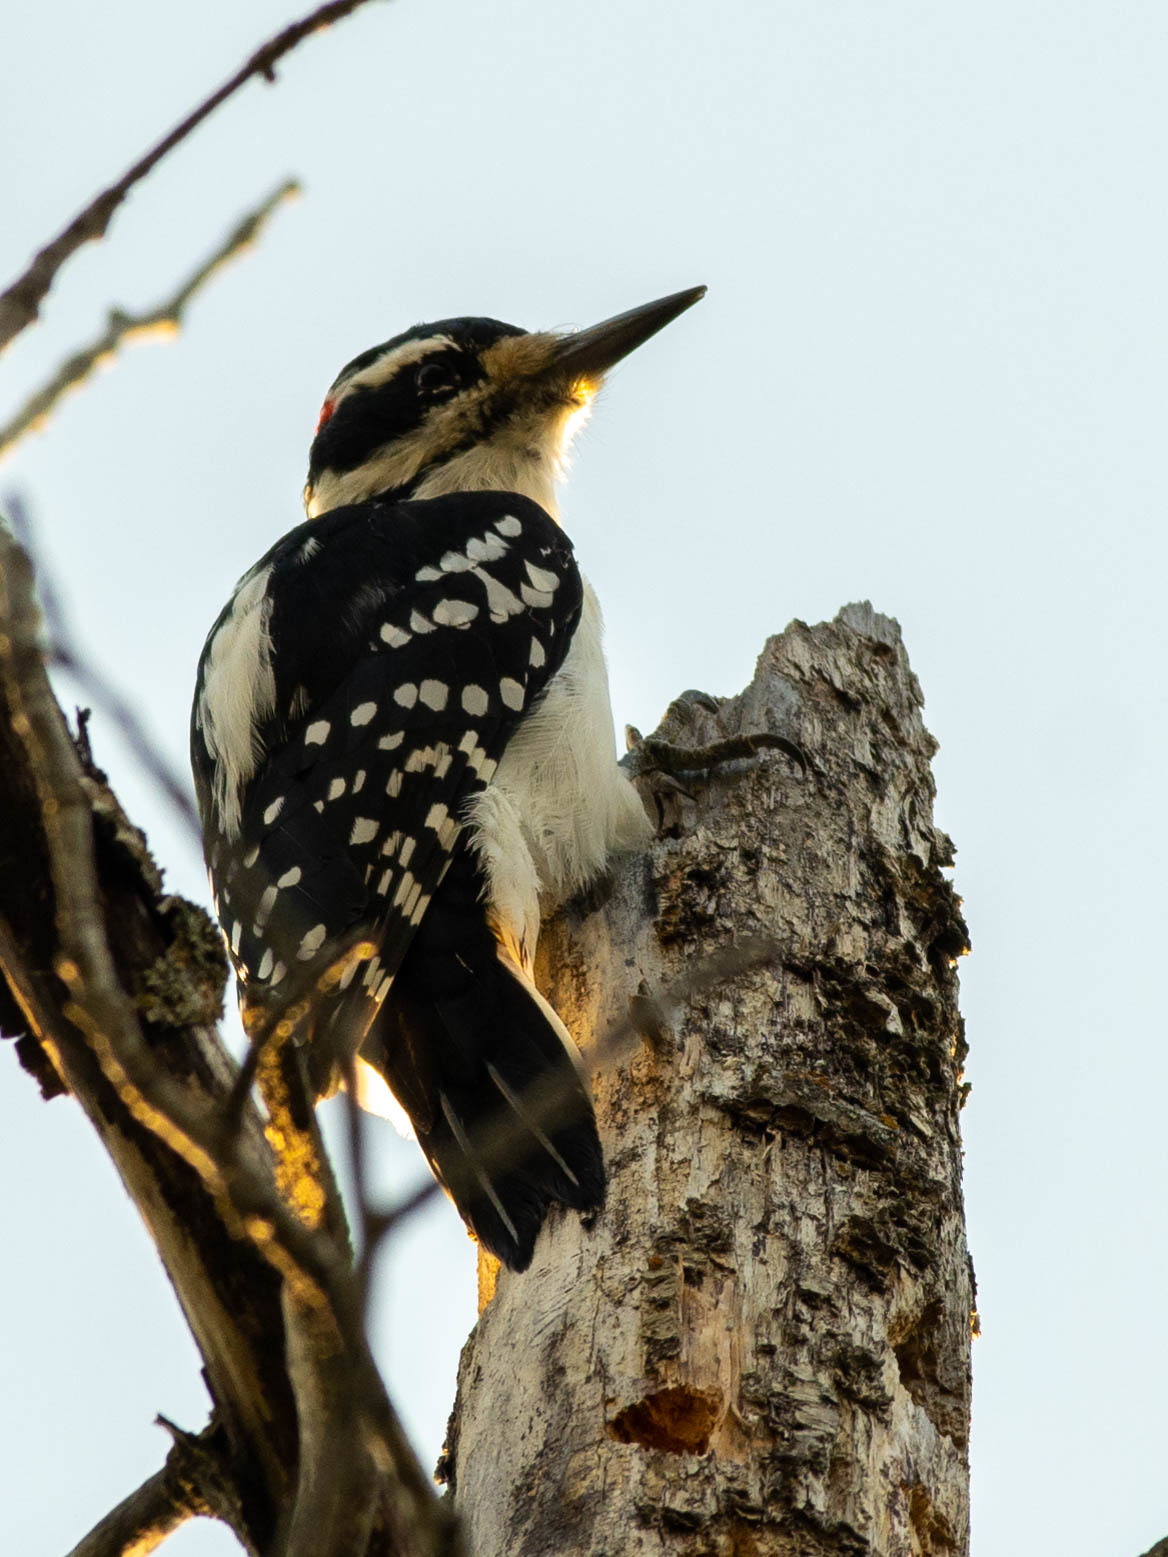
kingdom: Animalia
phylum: Chordata
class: Aves
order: Piciformes
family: Picidae
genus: Leuconotopicus
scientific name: Leuconotopicus villosus
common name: Hairy woodpecker
